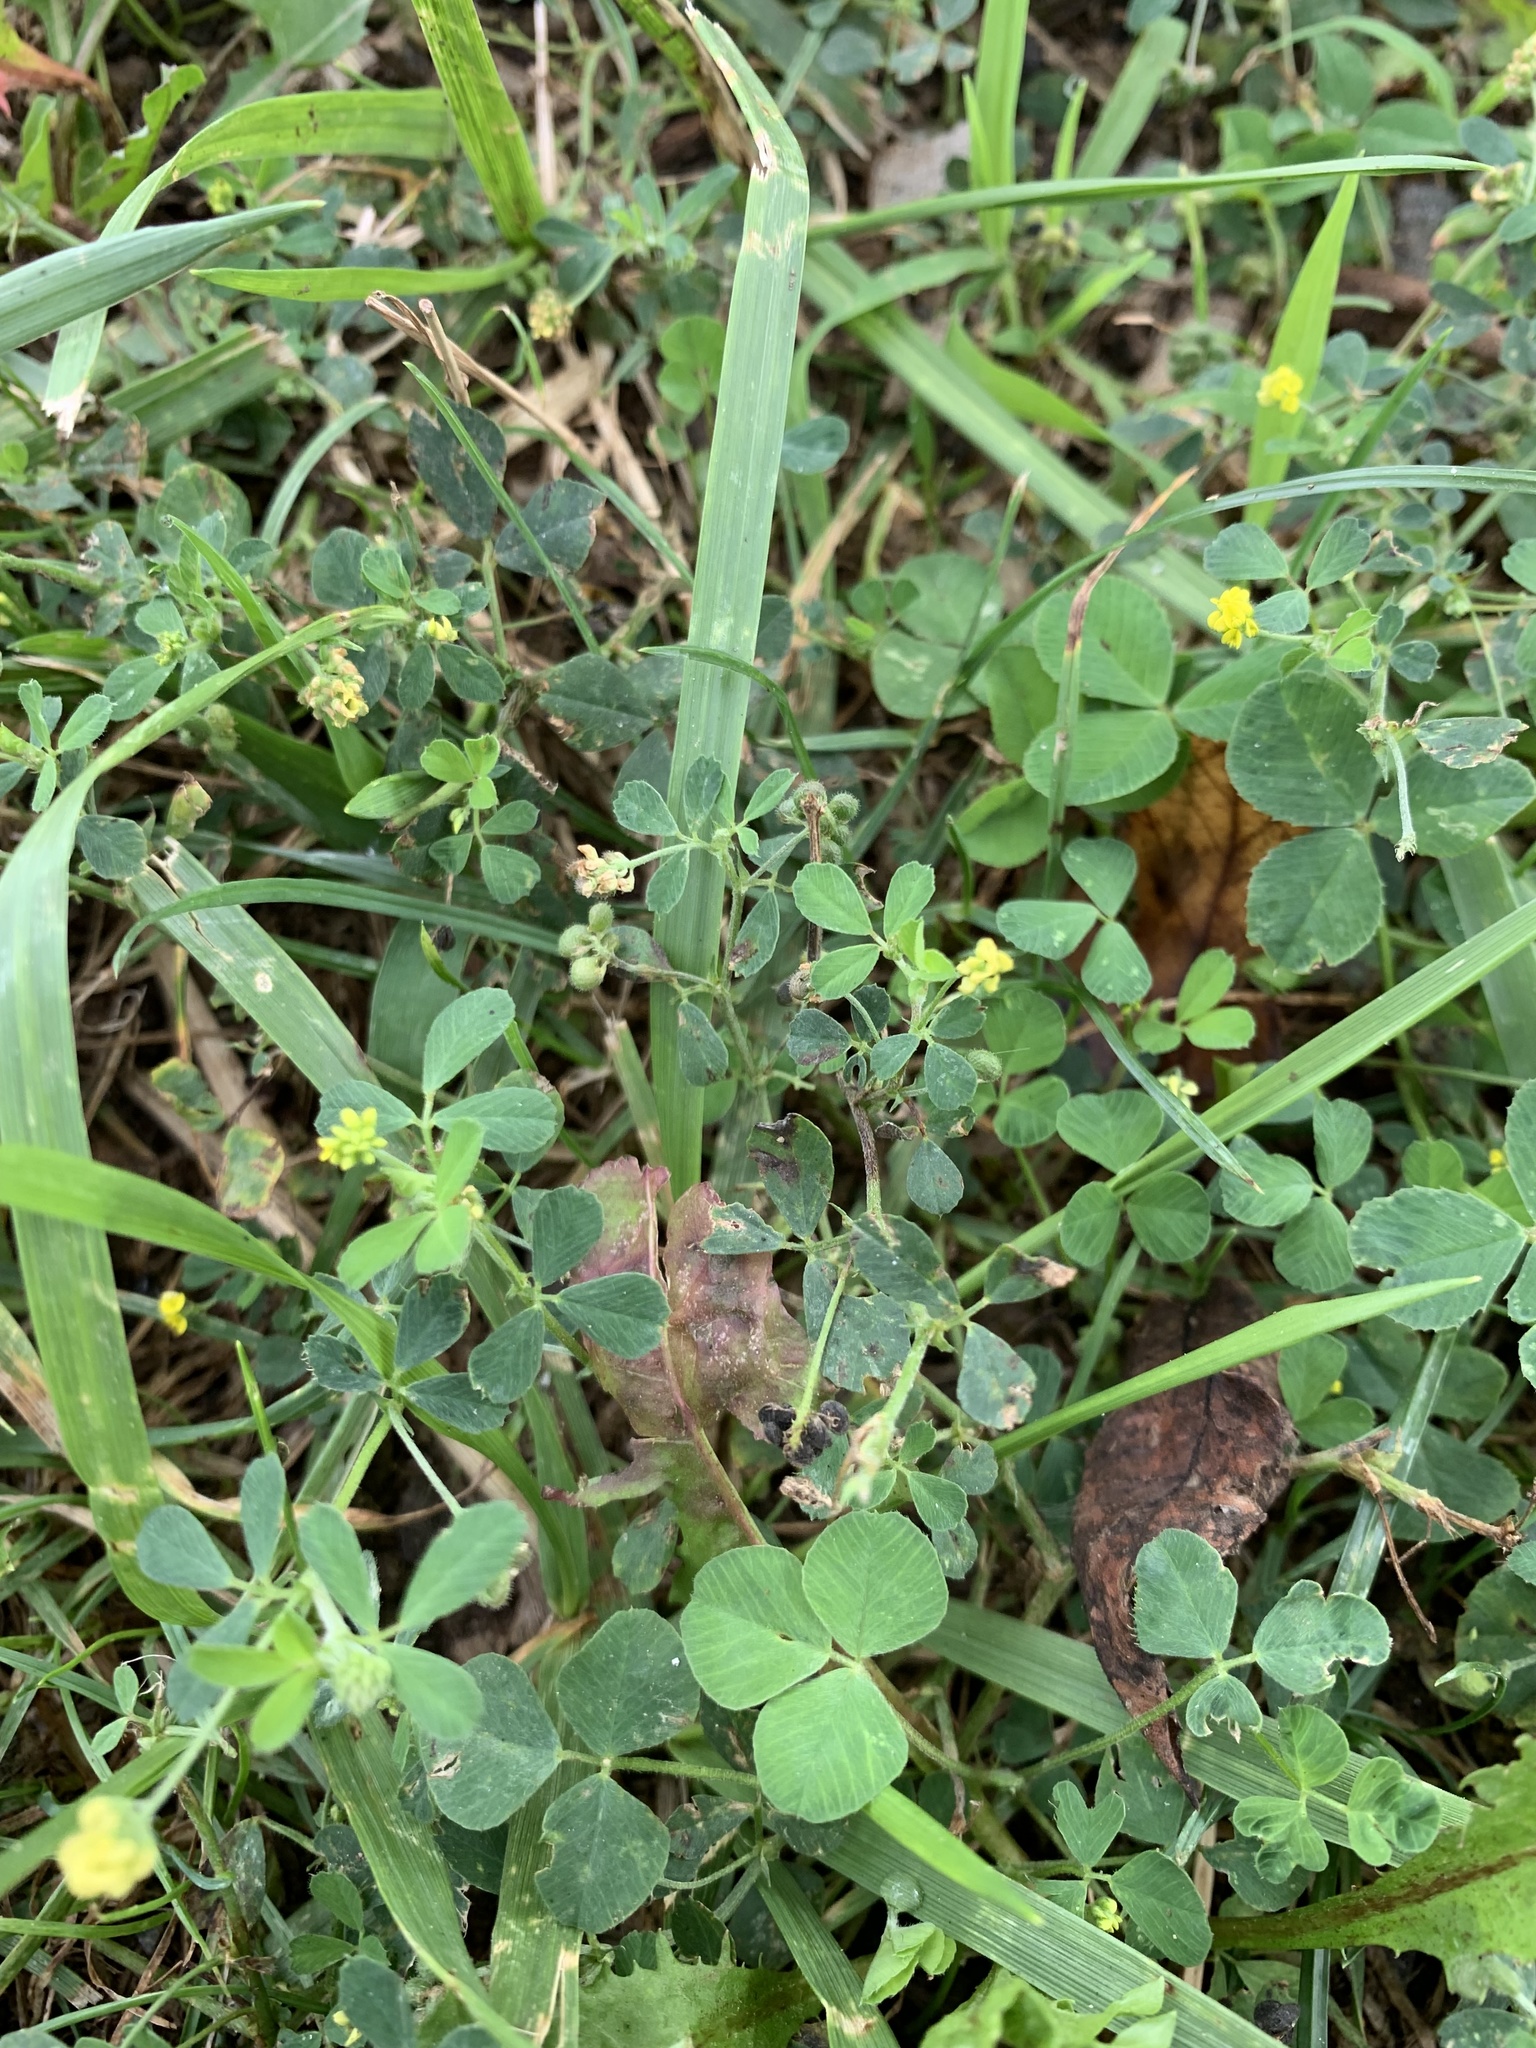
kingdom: Plantae
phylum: Tracheophyta
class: Magnoliopsida
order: Fabales
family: Fabaceae
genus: Medicago
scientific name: Medicago lupulina
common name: Black medick
